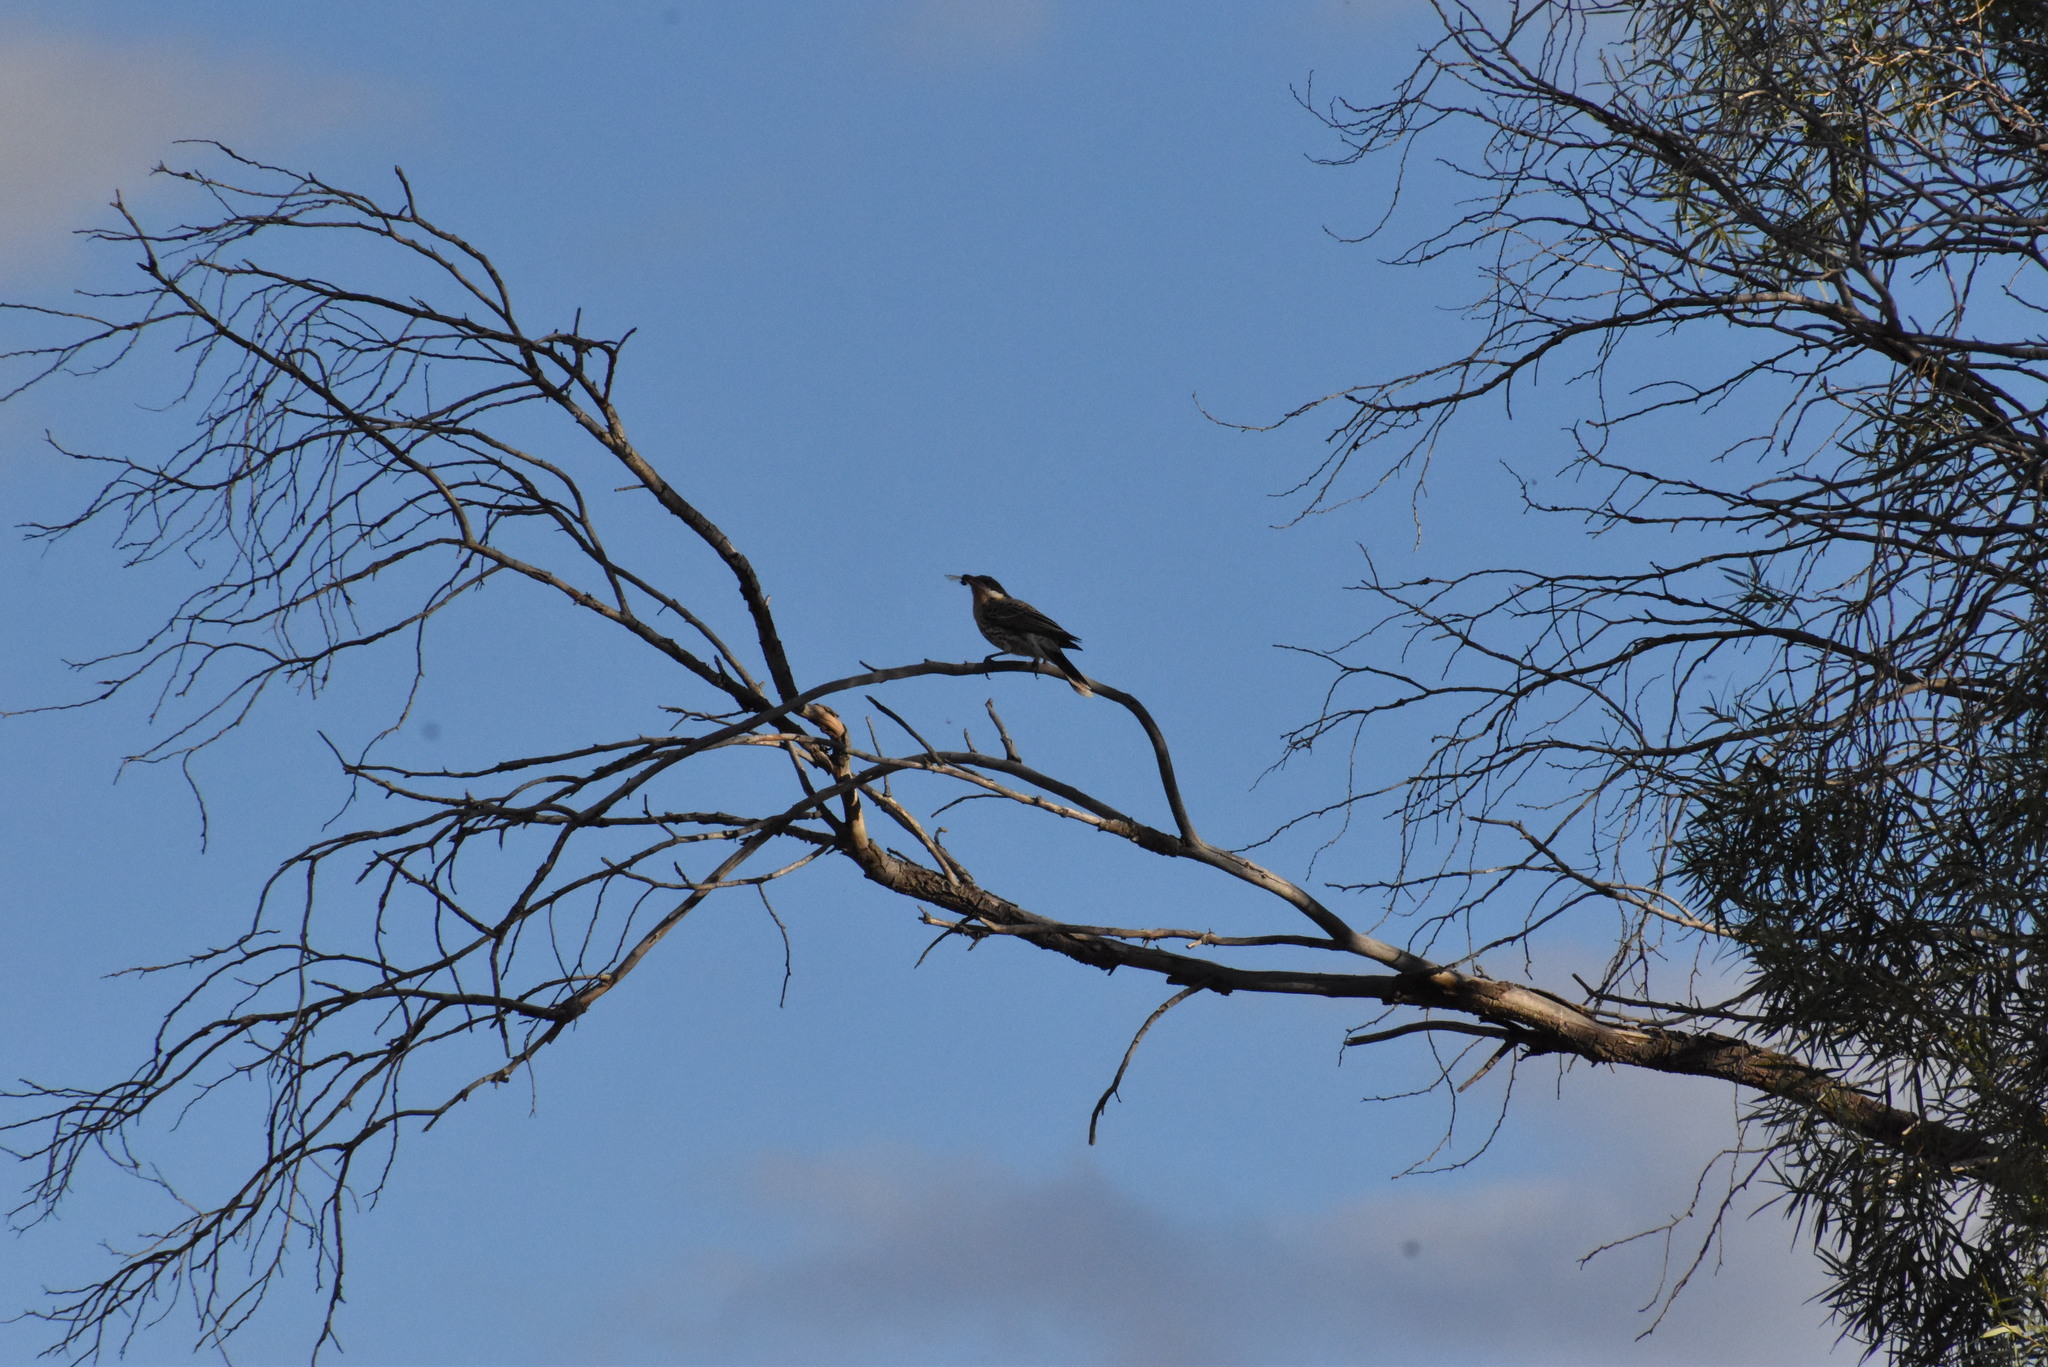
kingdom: Animalia
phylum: Chordata
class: Aves
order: Passeriformes
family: Meliphagidae
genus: Acanthagenys
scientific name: Acanthagenys rufogularis
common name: Spiny-cheeked honeyeater
